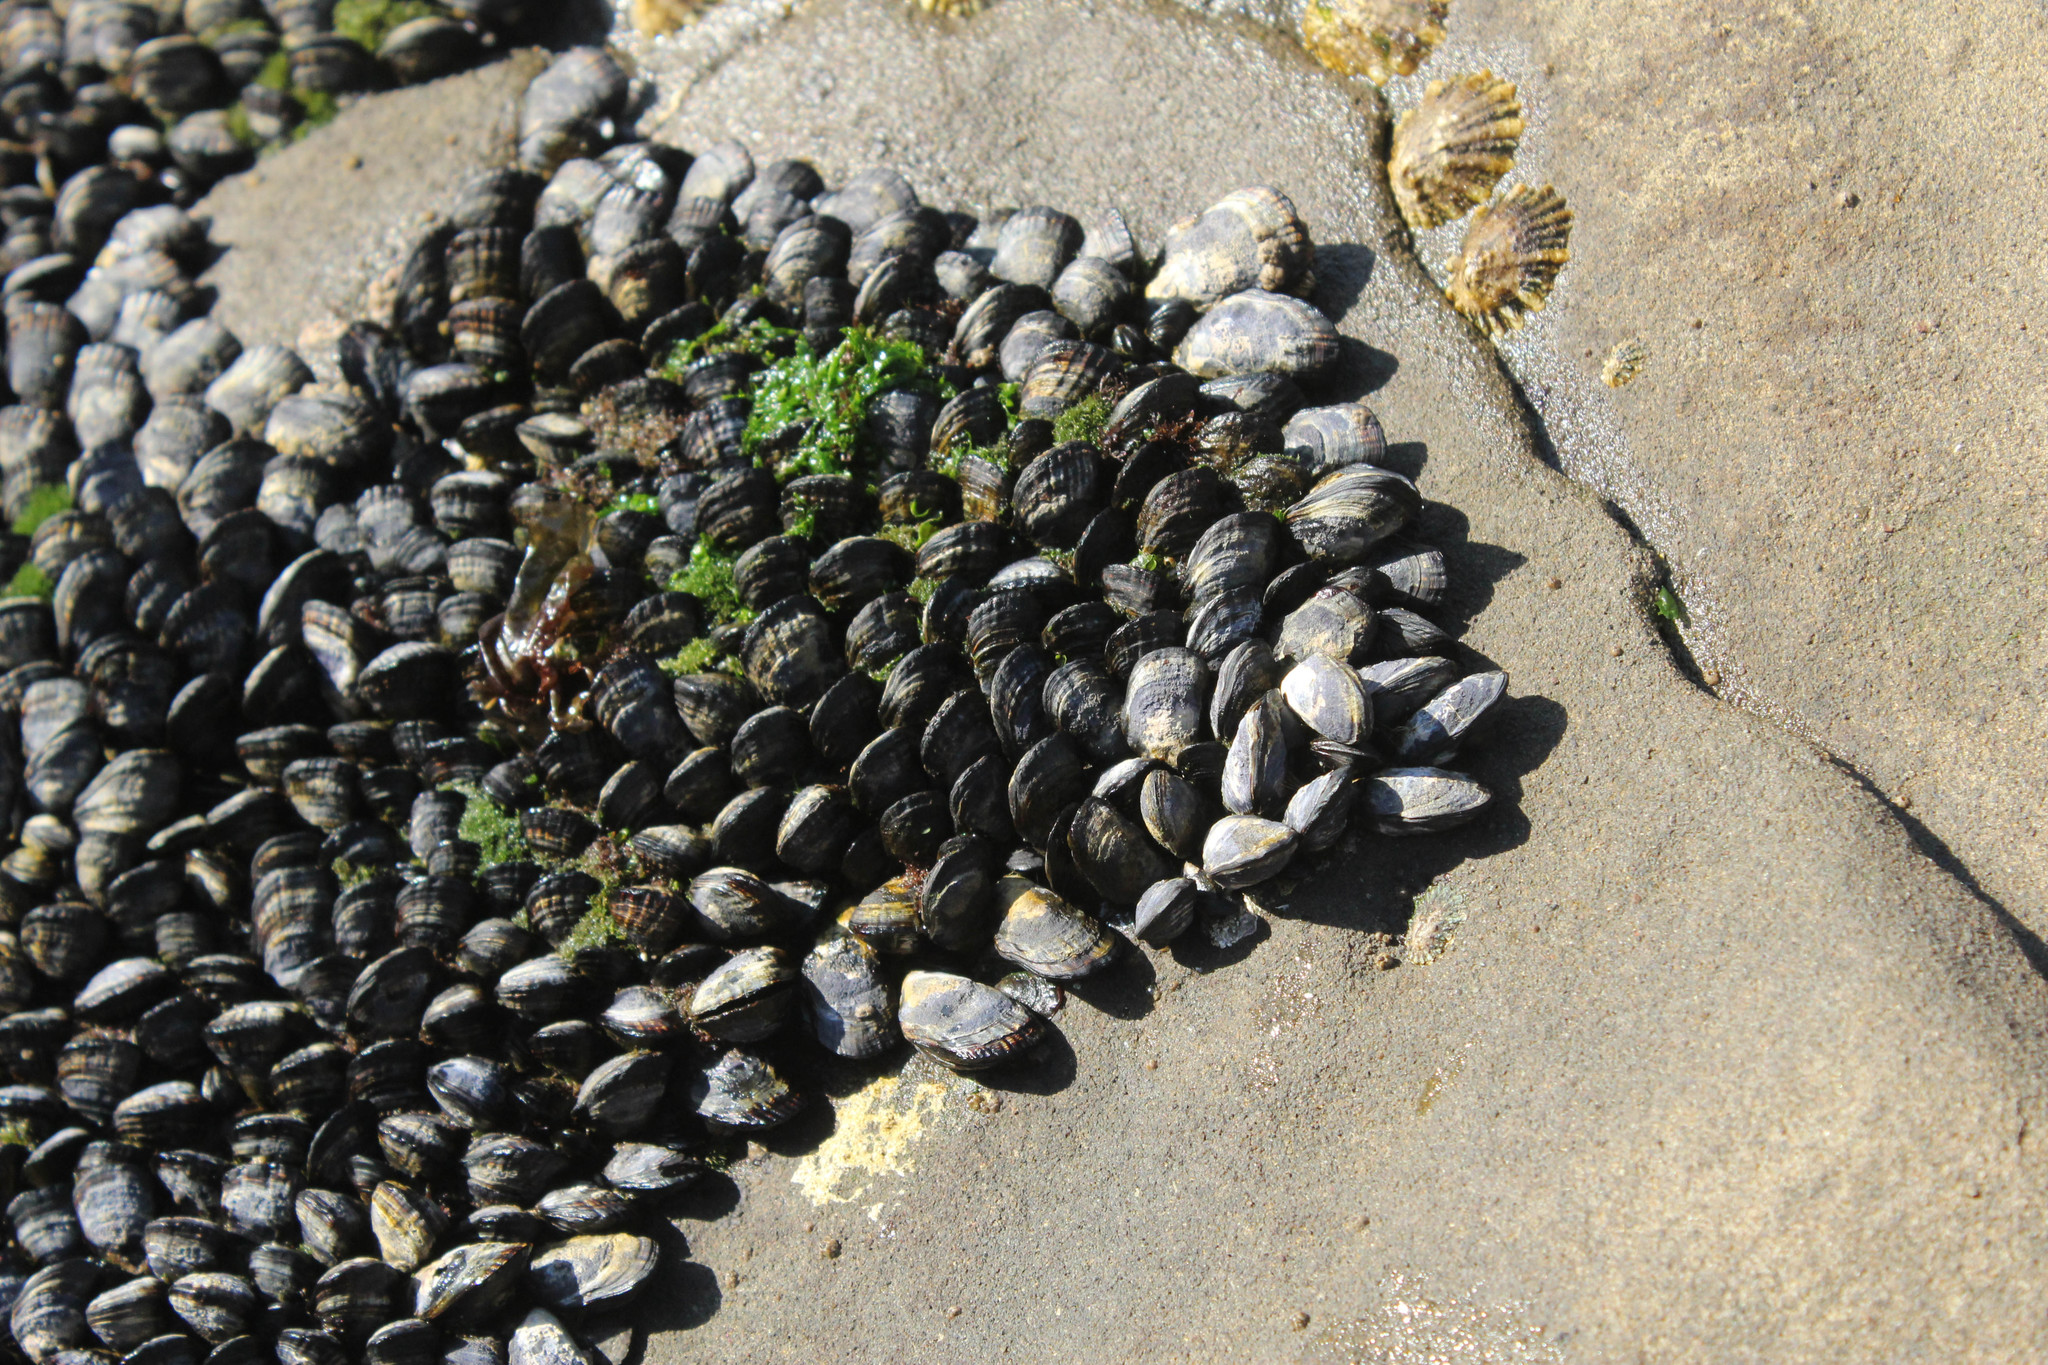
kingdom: Animalia
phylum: Mollusca
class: Bivalvia
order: Mytilida
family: Mytilidae
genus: Mytilus
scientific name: Mytilus californianus
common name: California mussel
